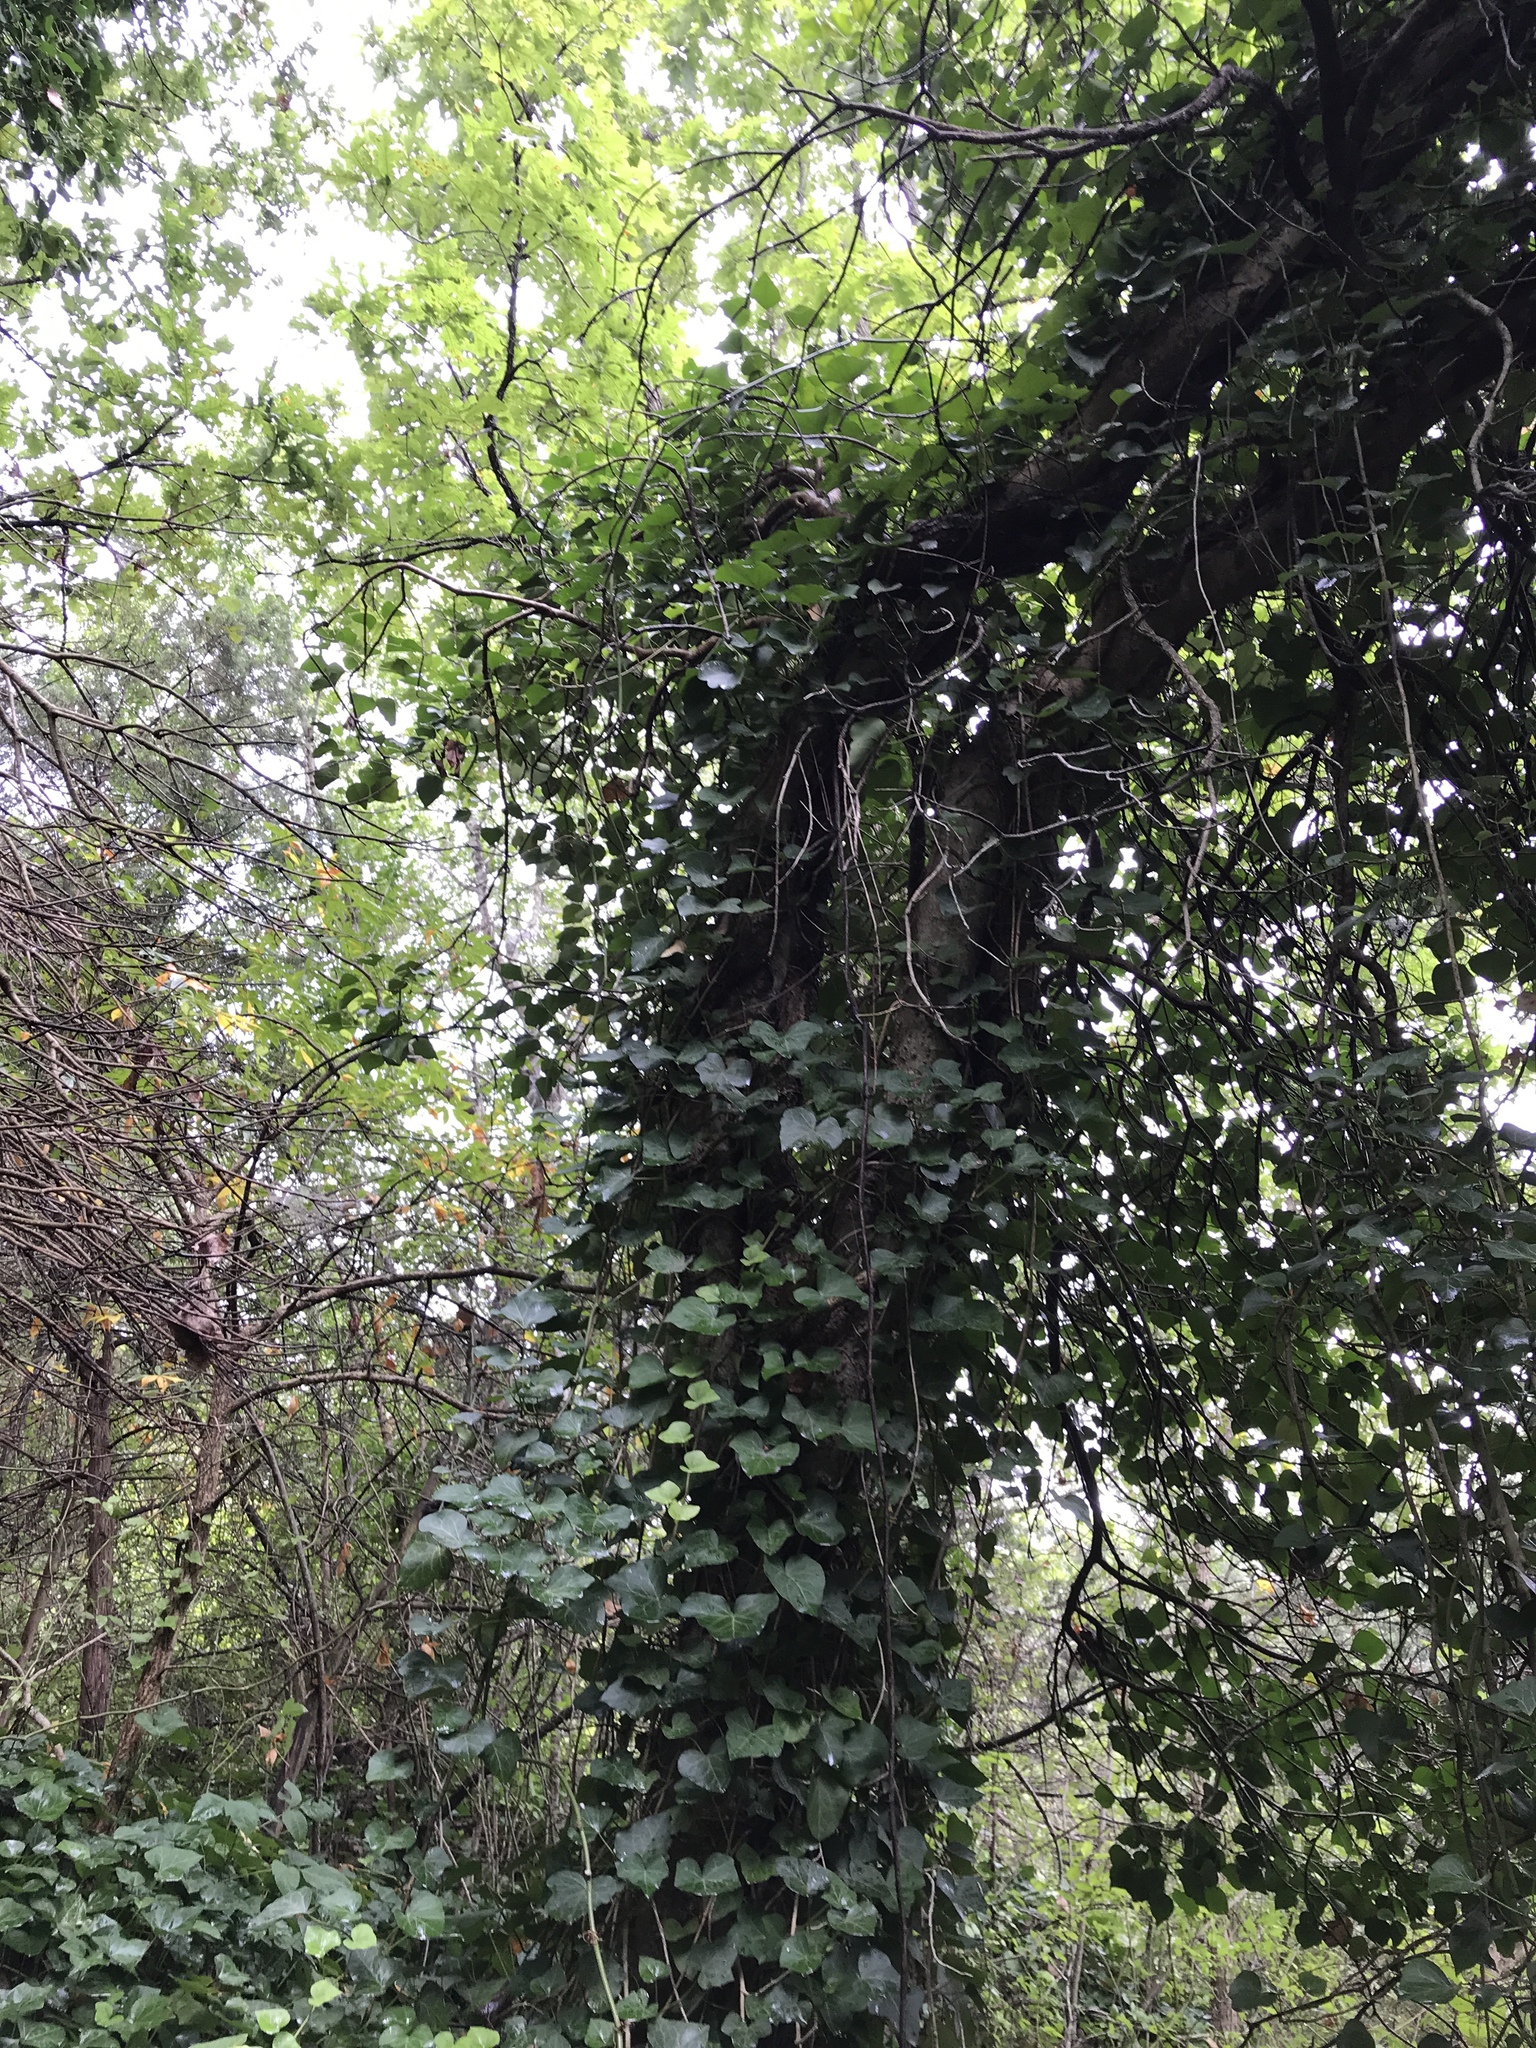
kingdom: Plantae
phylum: Tracheophyta
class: Magnoliopsida
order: Apiales
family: Araliaceae
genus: Hedera
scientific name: Hedera helix
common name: Ivy
